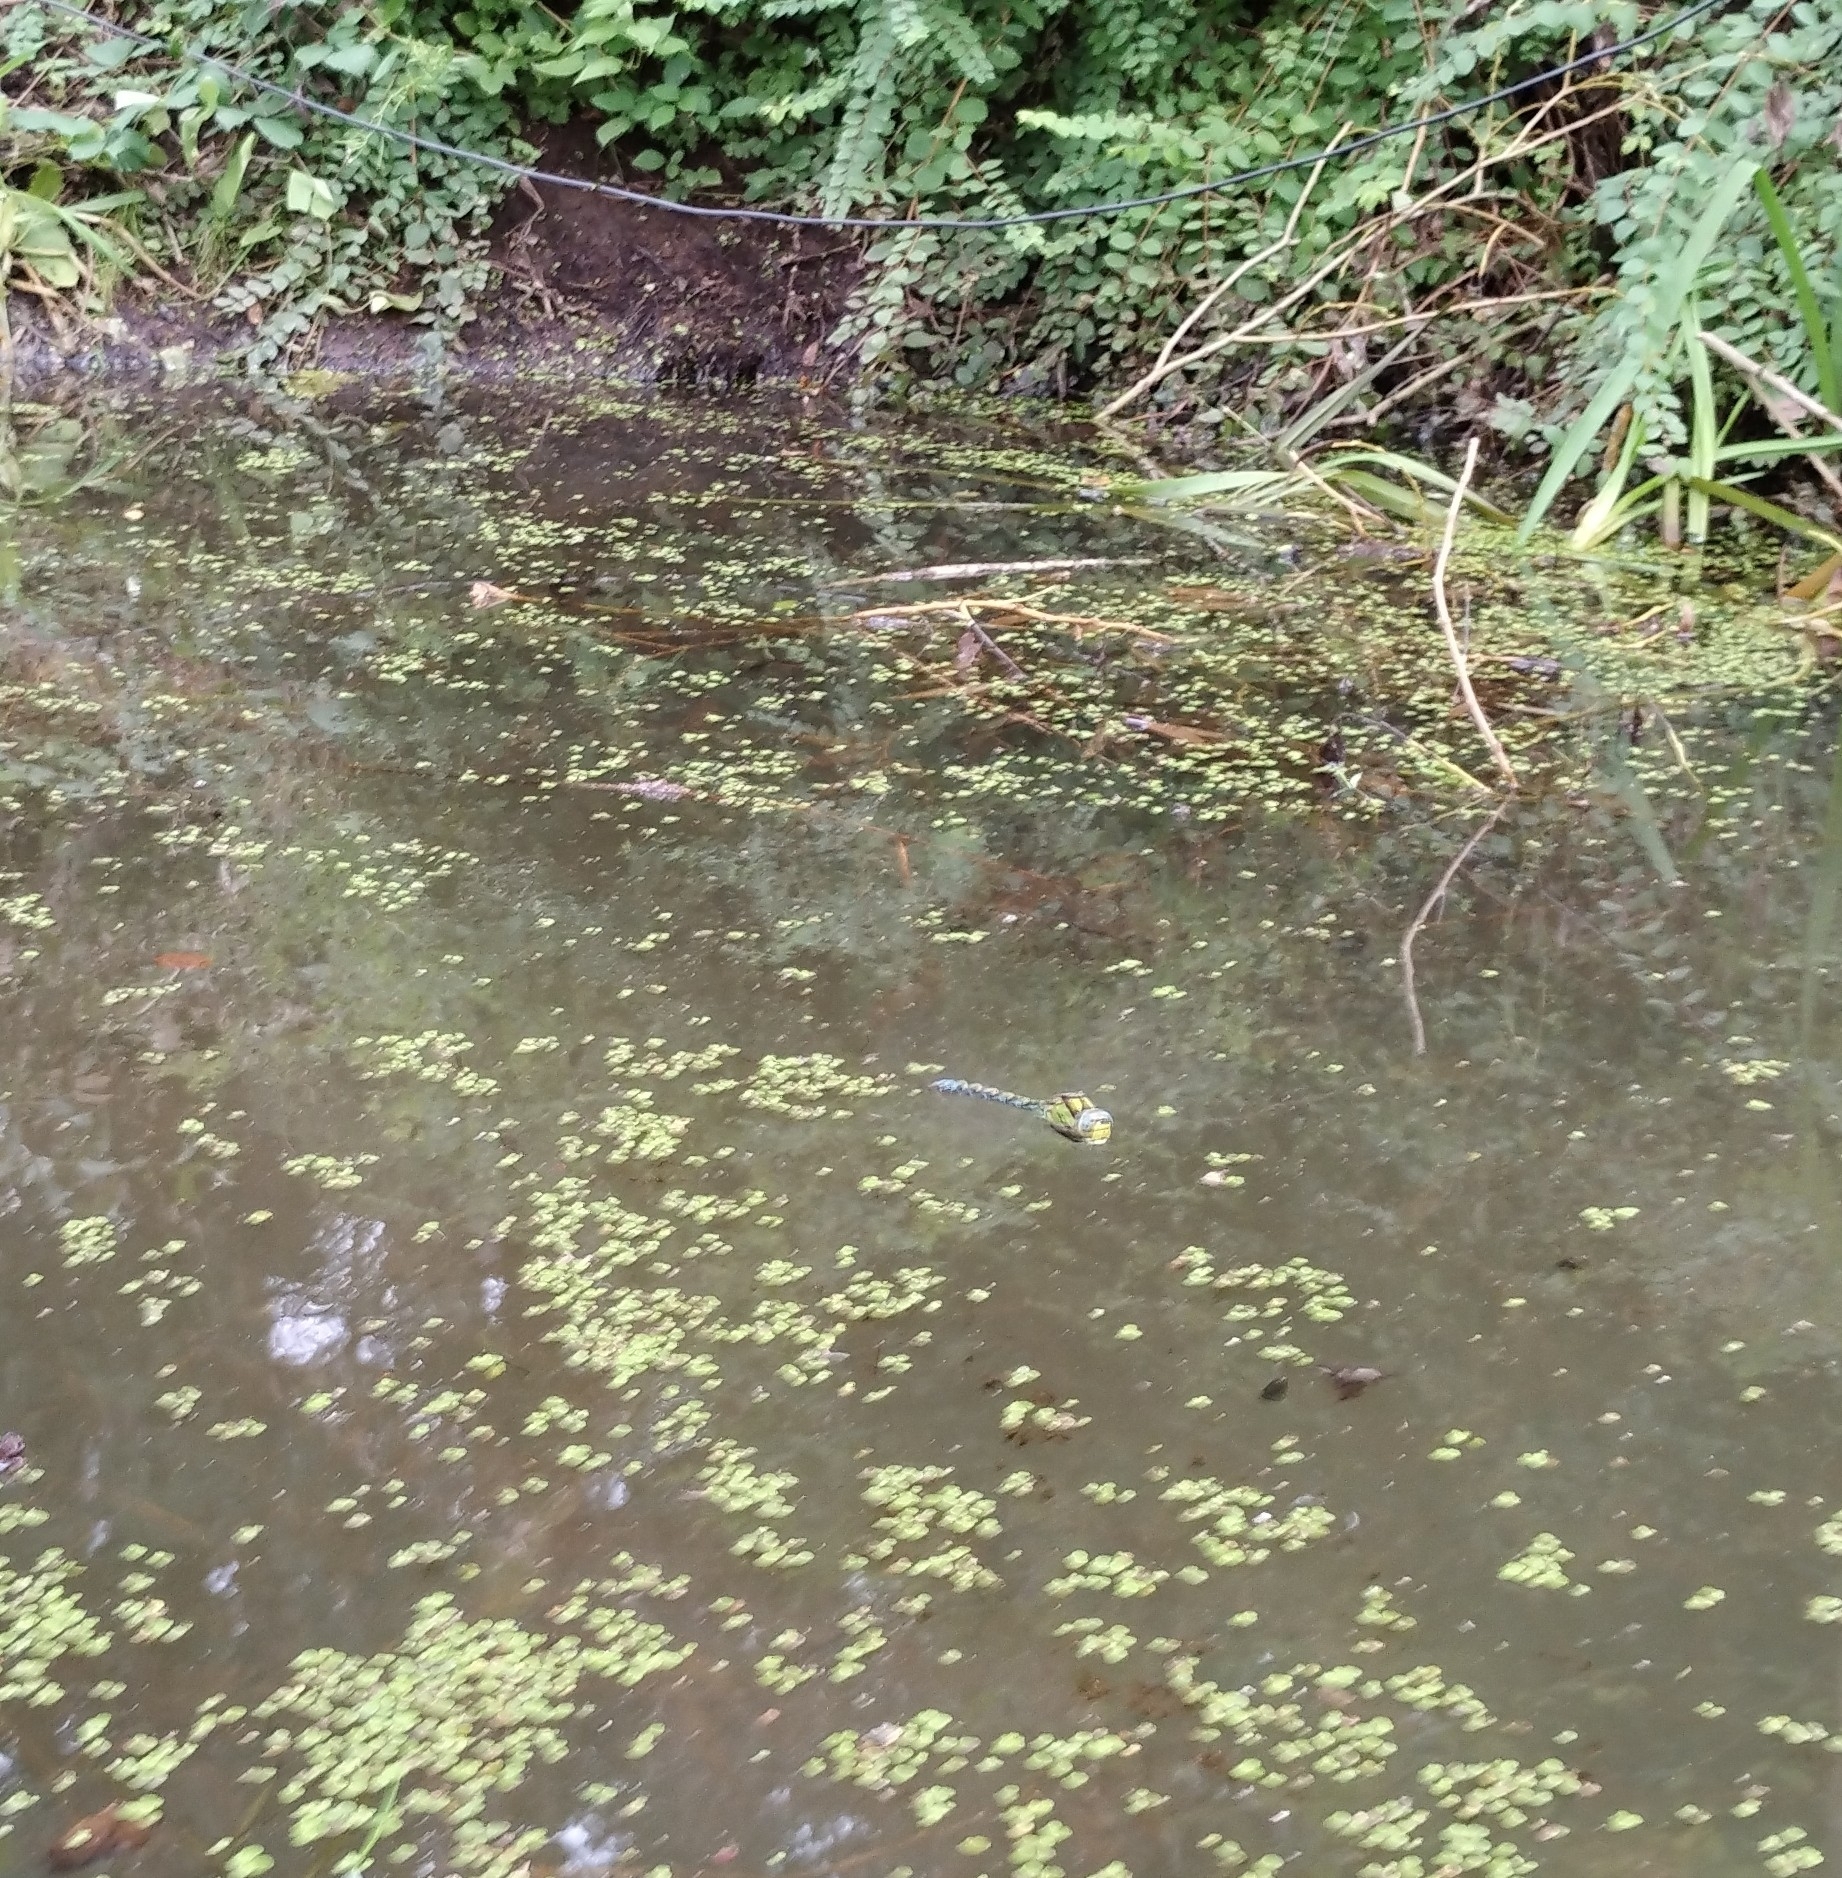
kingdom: Animalia
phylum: Arthropoda
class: Insecta
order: Odonata
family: Aeshnidae
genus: Aeshna
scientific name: Aeshna cyanea
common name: Southern hawker
